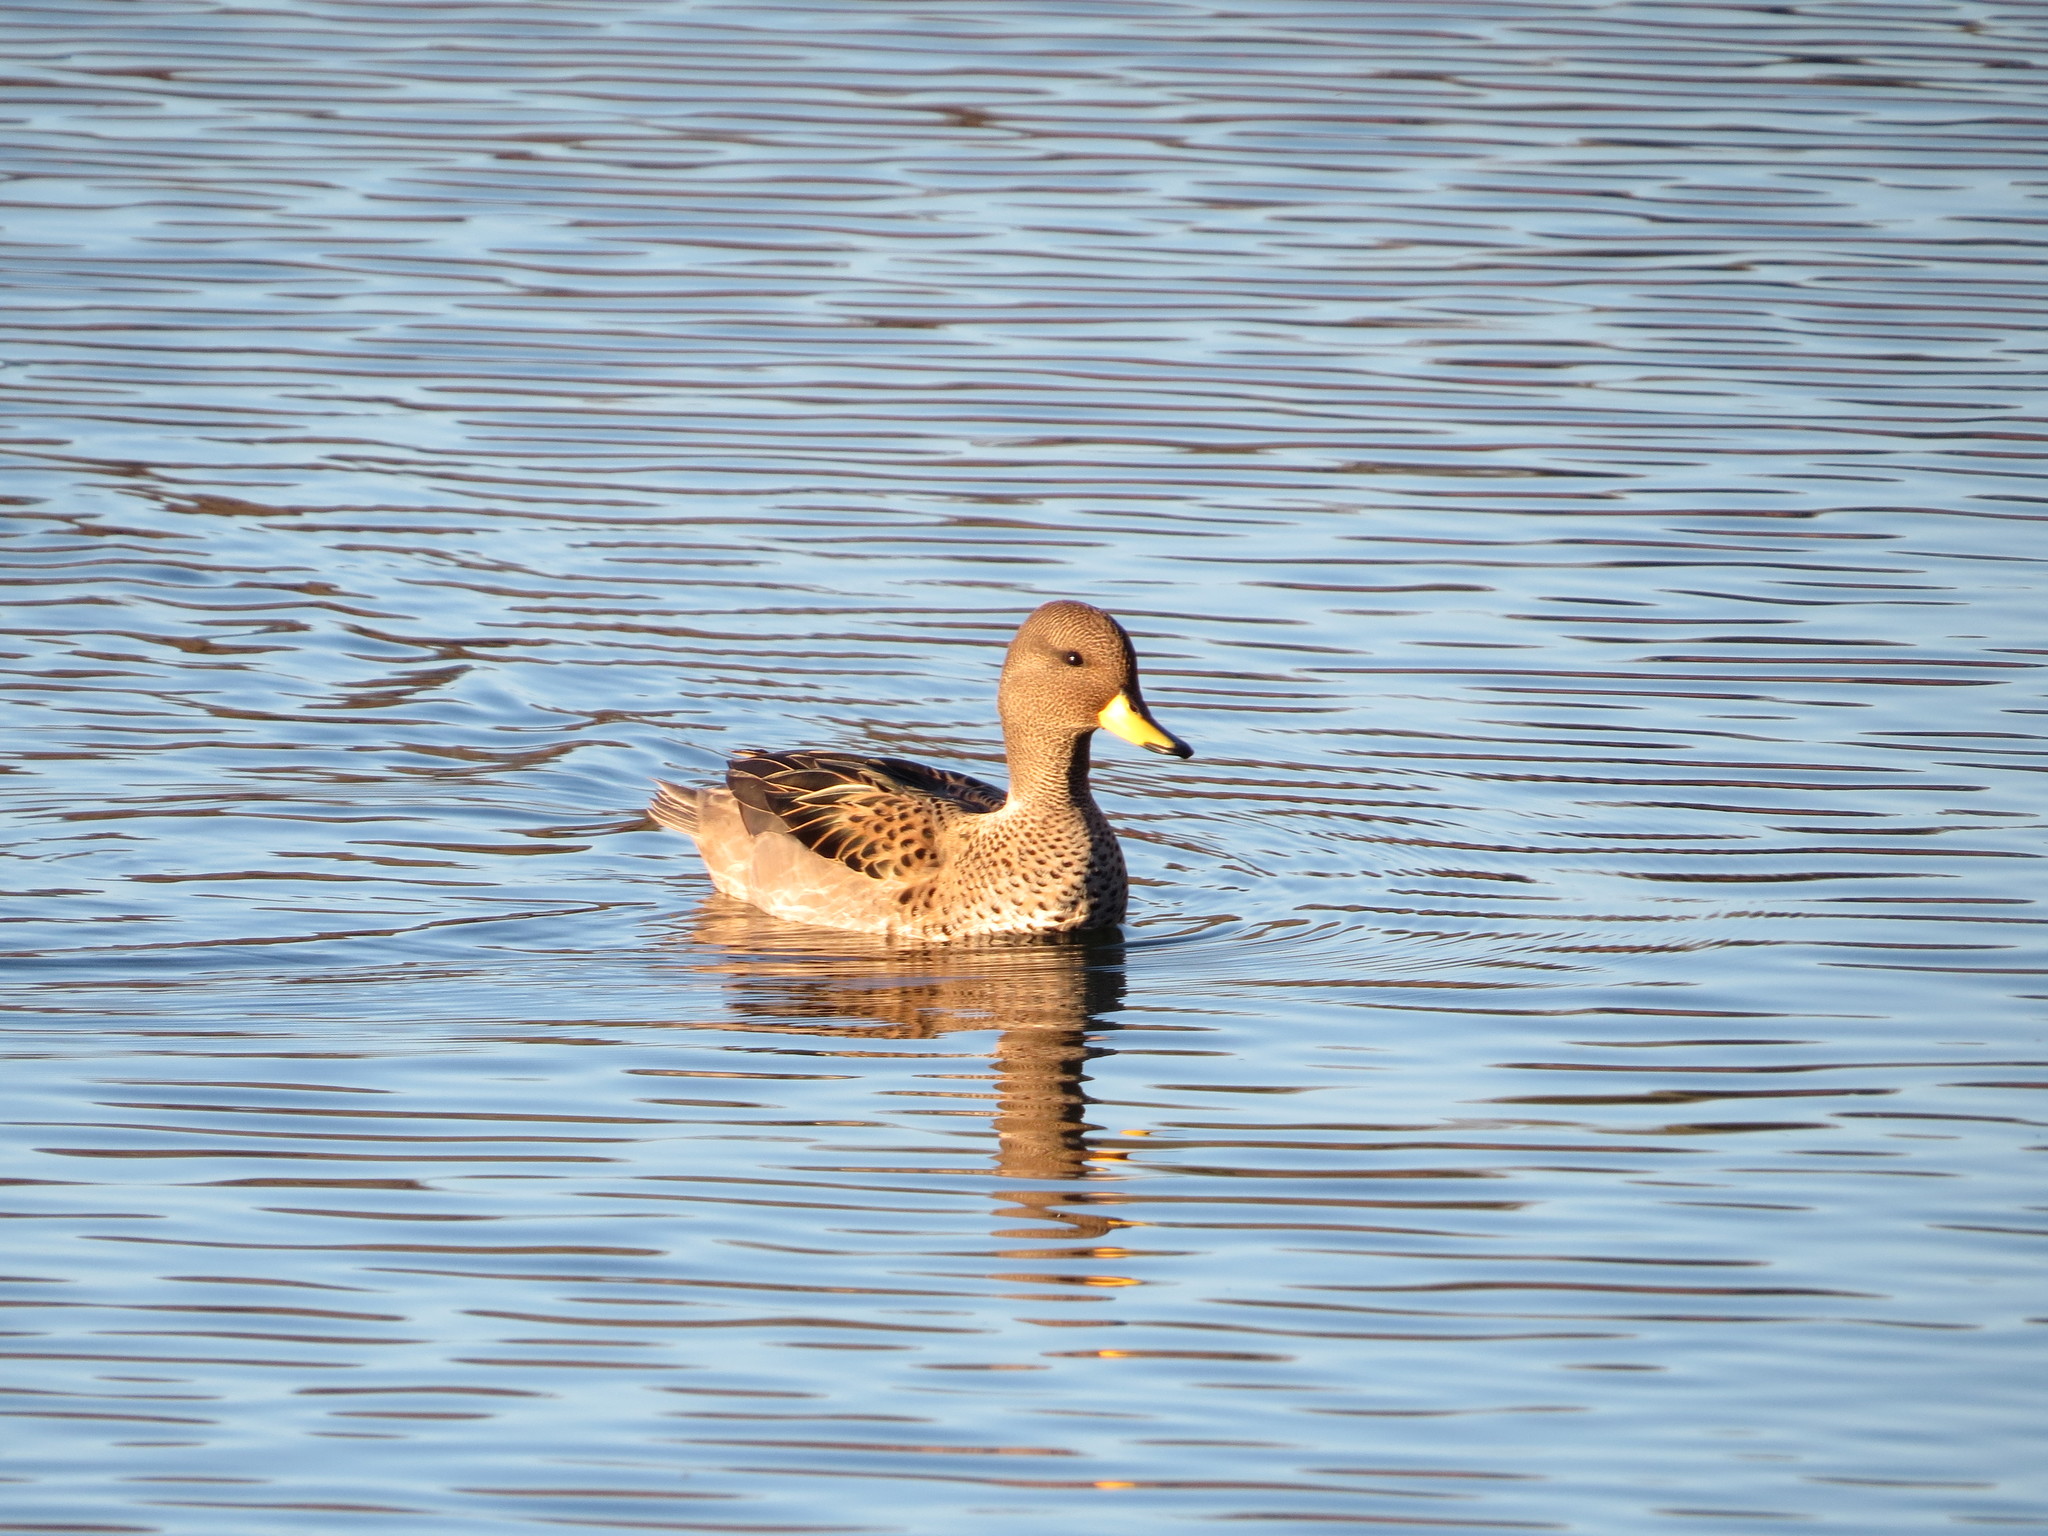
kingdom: Animalia
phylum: Chordata
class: Aves
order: Anseriformes
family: Anatidae
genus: Anas
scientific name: Anas flavirostris
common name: Yellow-billed teal
